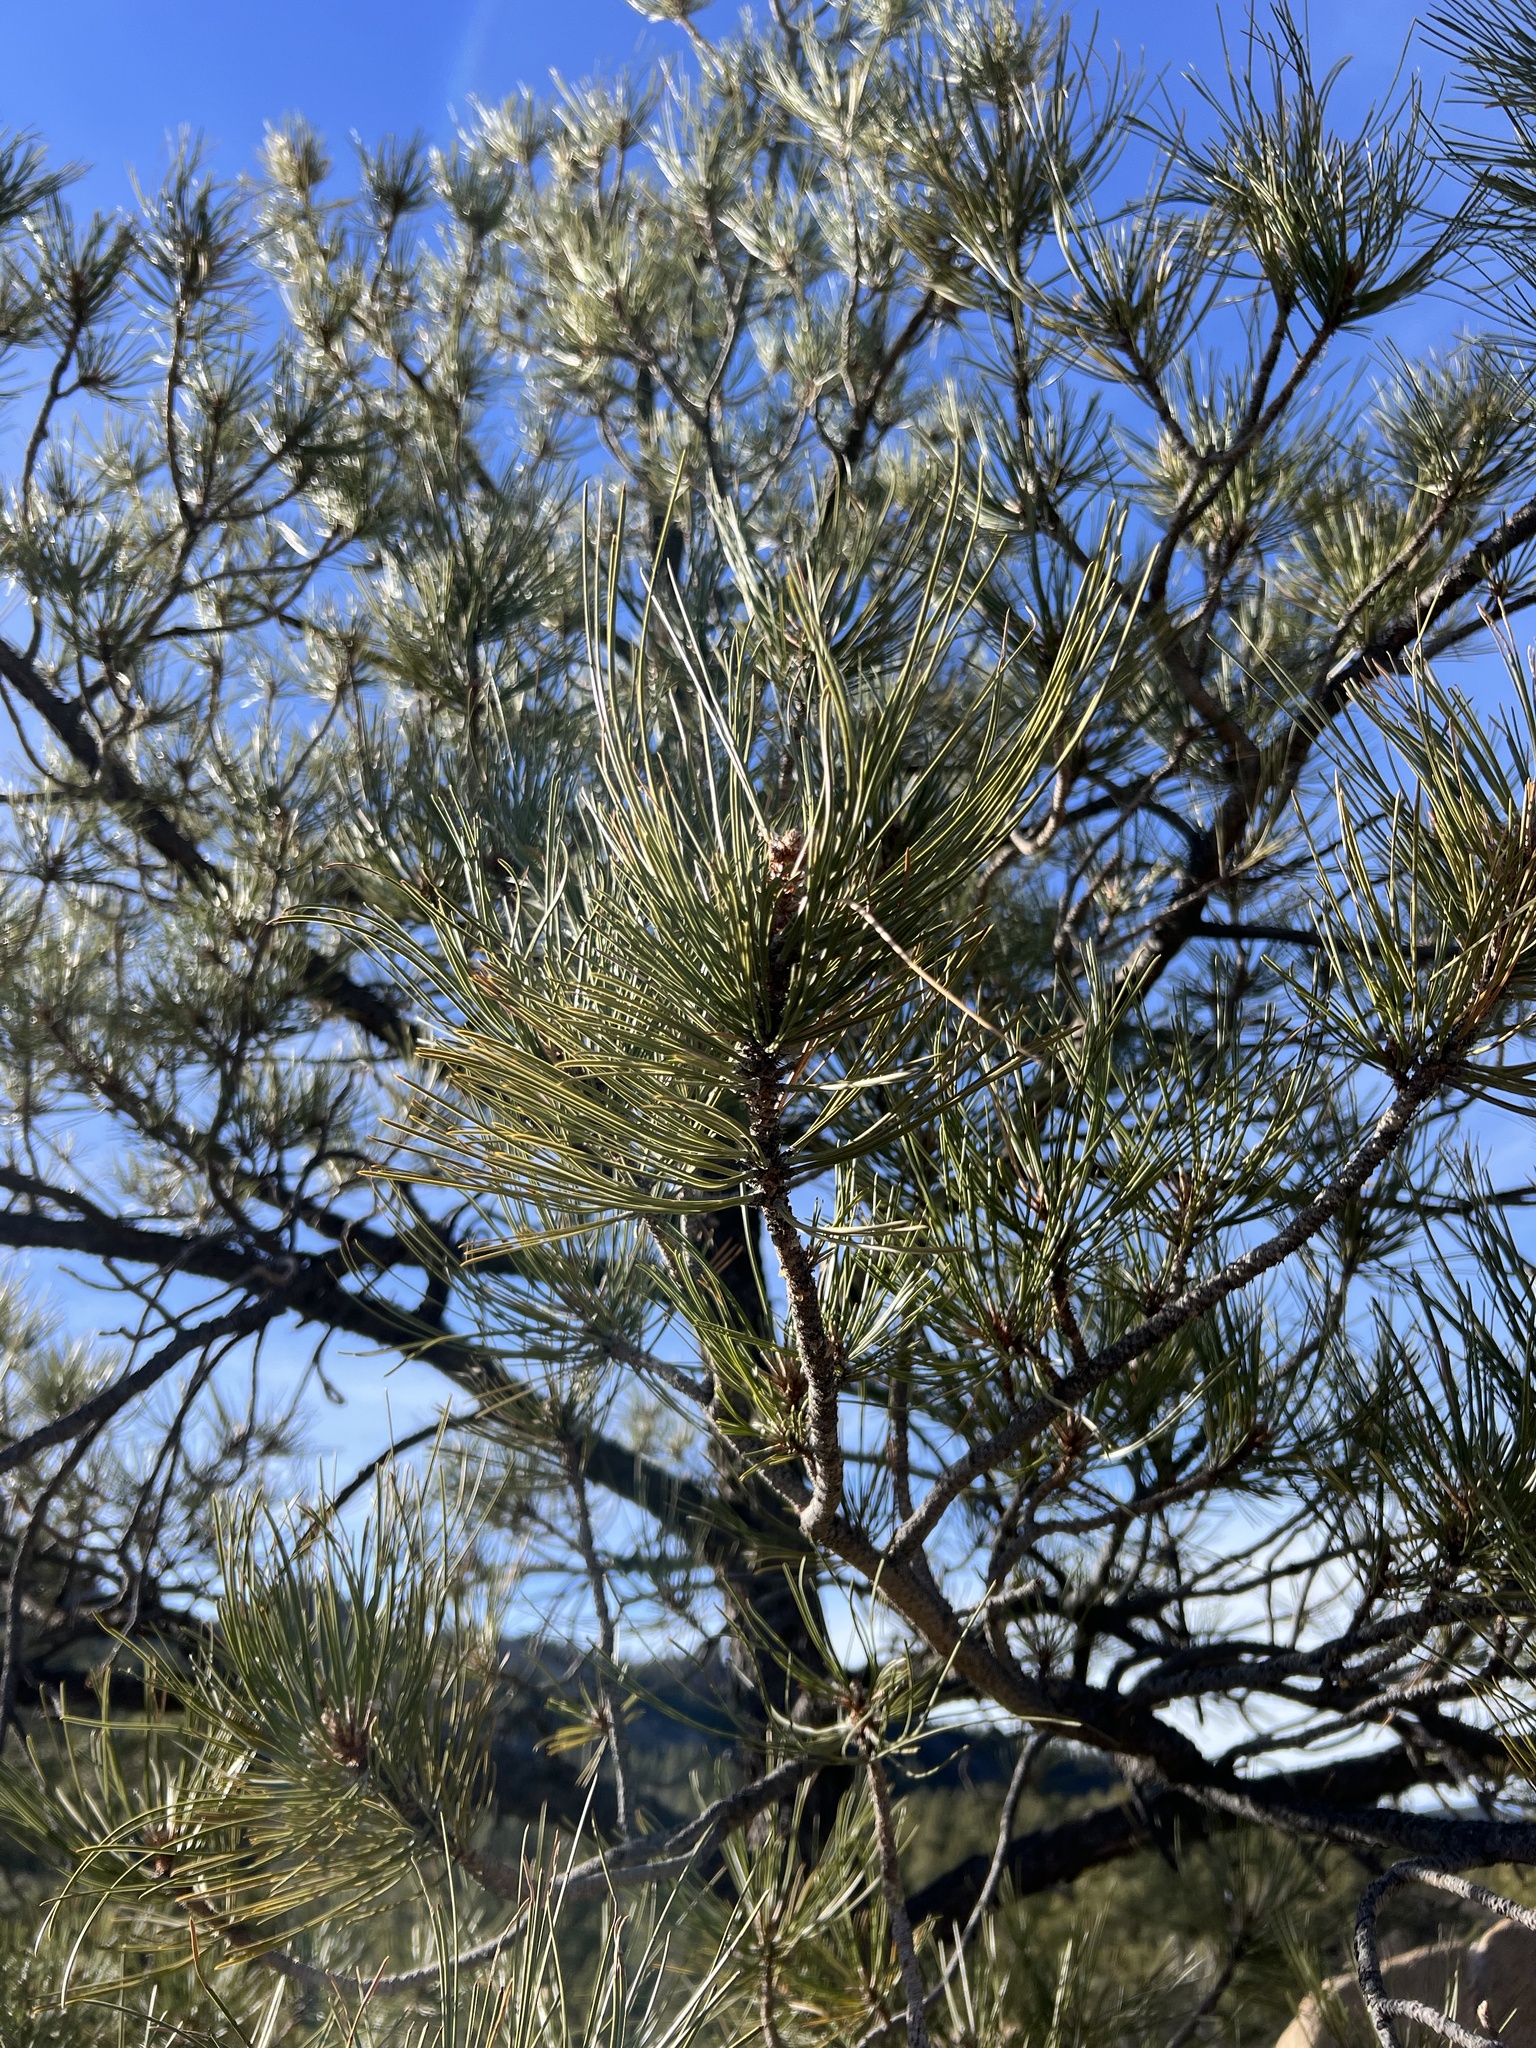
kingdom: Plantae
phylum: Tracheophyta
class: Pinopsida
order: Pinales
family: Pinaceae
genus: Pinus
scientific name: Pinus ponderosa
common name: Western yellow-pine
